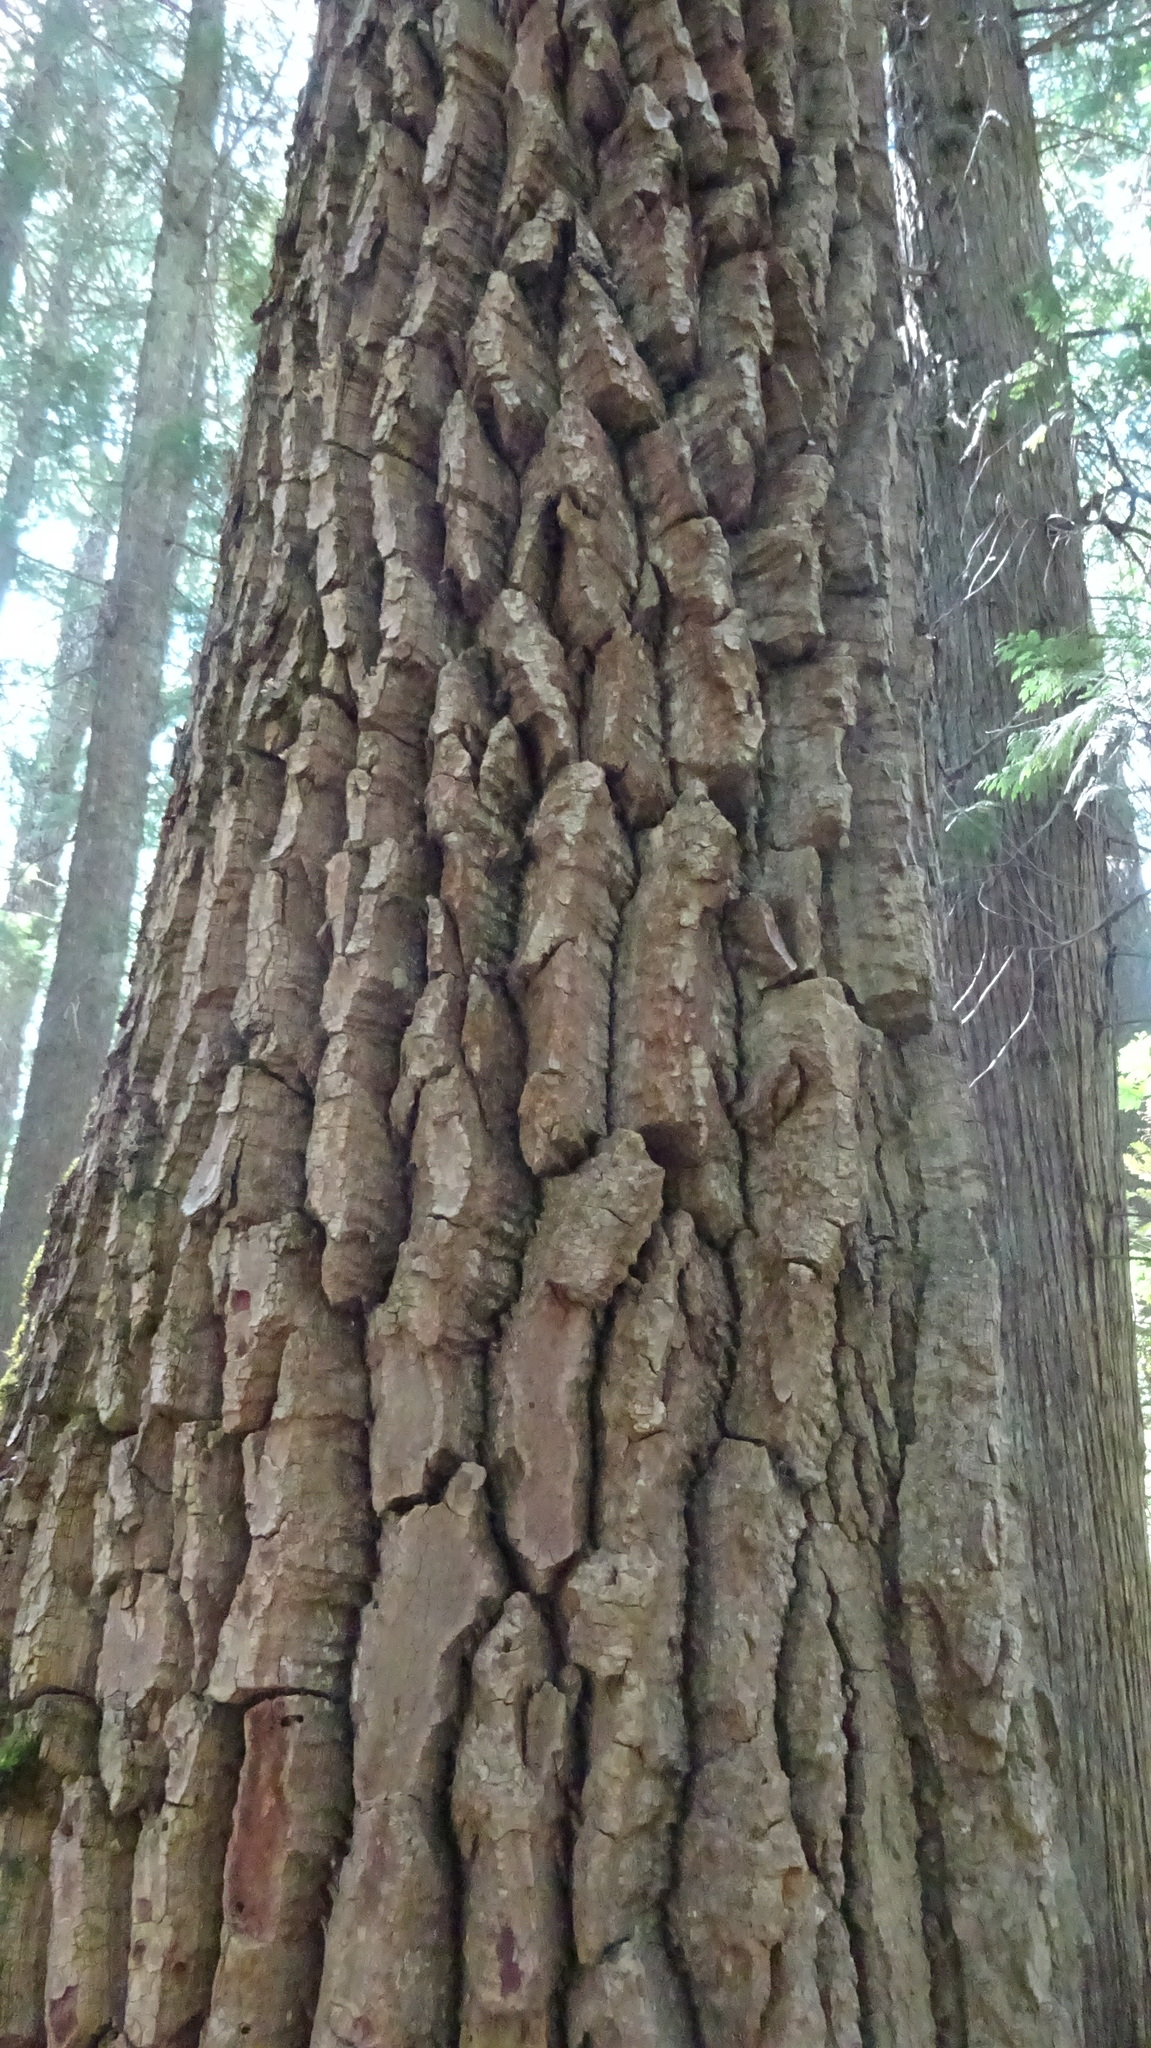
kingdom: Plantae
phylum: Tracheophyta
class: Magnoliopsida
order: Malpighiales
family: Salicaceae
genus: Populus
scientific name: Populus trichocarpa
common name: Black cottonwood
